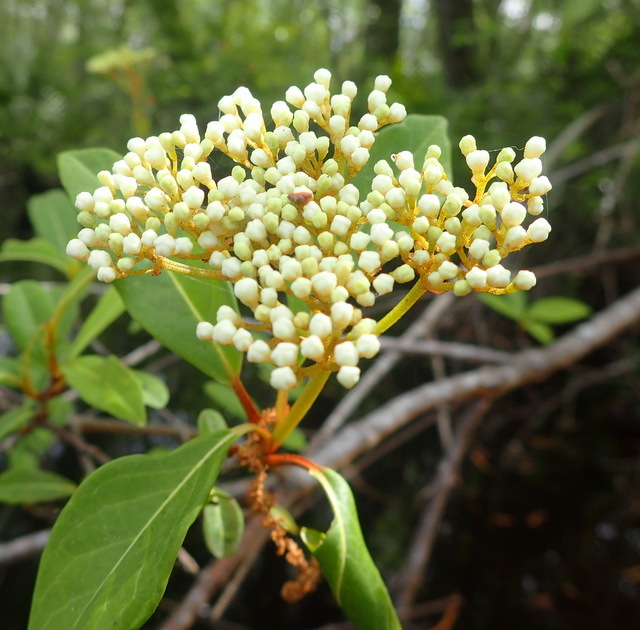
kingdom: Plantae
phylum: Tracheophyta
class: Magnoliopsida
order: Dipsacales
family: Viburnaceae
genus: Viburnum
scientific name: Viburnum nudum
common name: Possum haw
